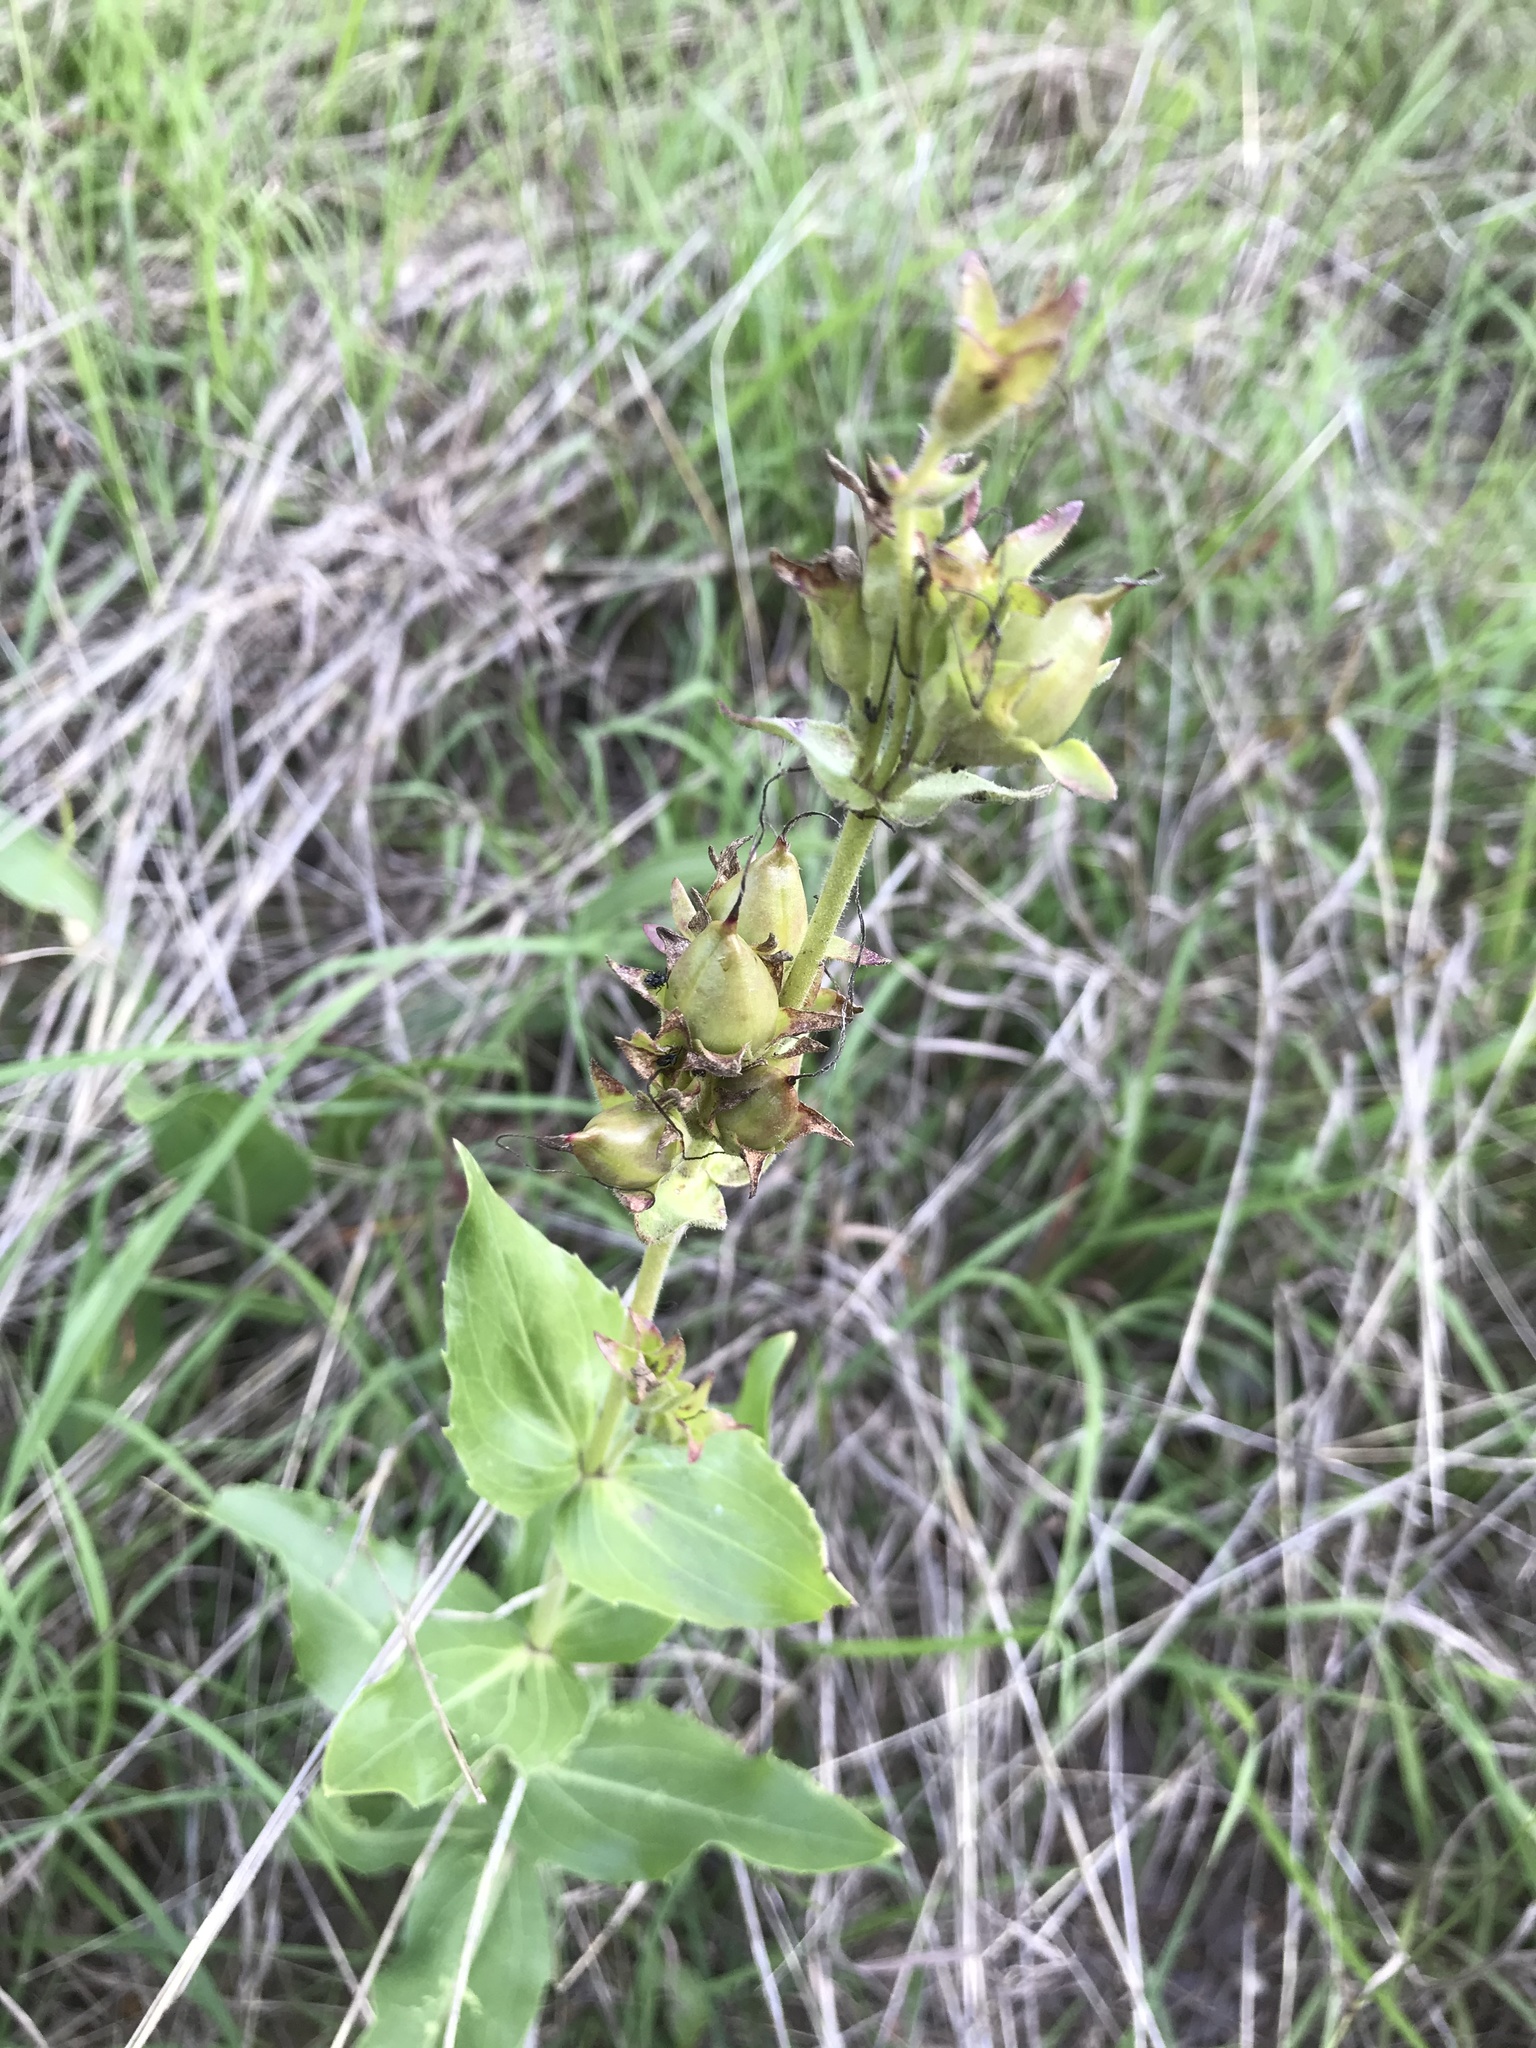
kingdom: Plantae
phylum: Tracheophyta
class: Magnoliopsida
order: Lamiales
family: Plantaginaceae
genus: Penstemon
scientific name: Penstemon cobaea
